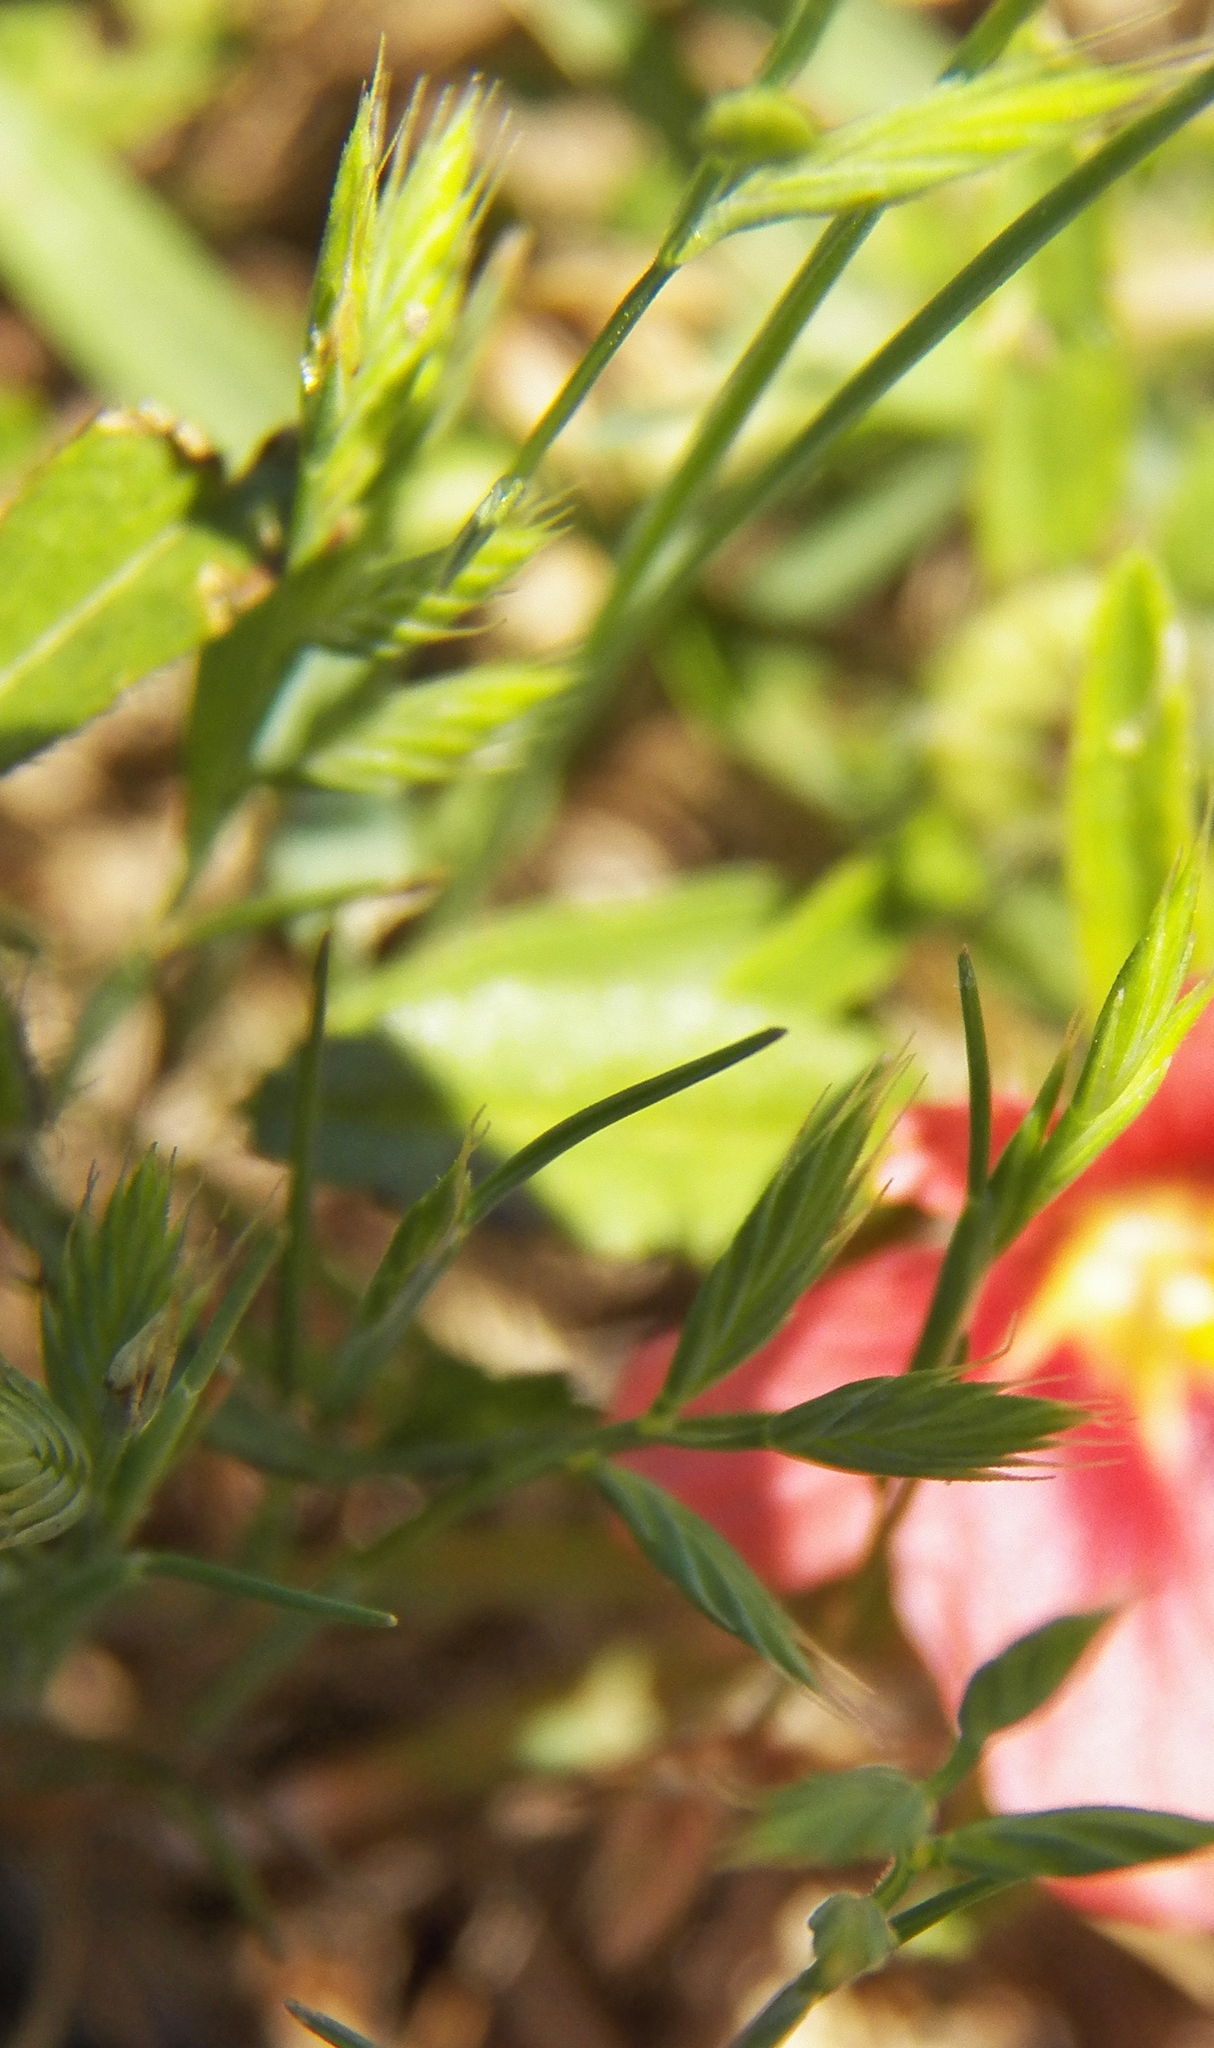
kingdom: Plantae
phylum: Tracheophyta
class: Liliopsida
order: Poales
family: Poaceae
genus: Festuca
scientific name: Festuca octoflora
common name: Sixweeks grass
